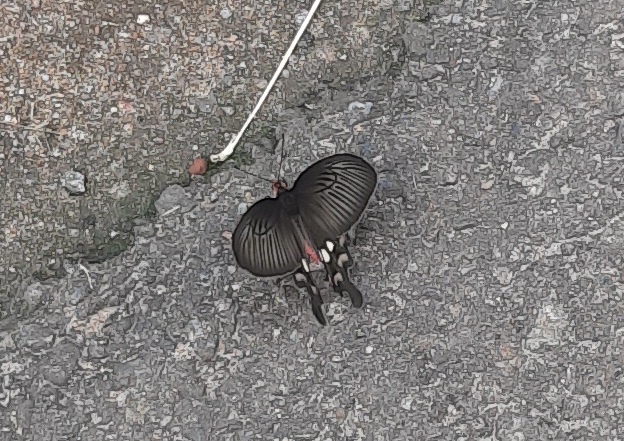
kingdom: Animalia
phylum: Arthropoda
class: Insecta
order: Lepidoptera
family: Papilionidae
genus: Pachliopta
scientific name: Pachliopta aristolochiae
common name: Common rose
